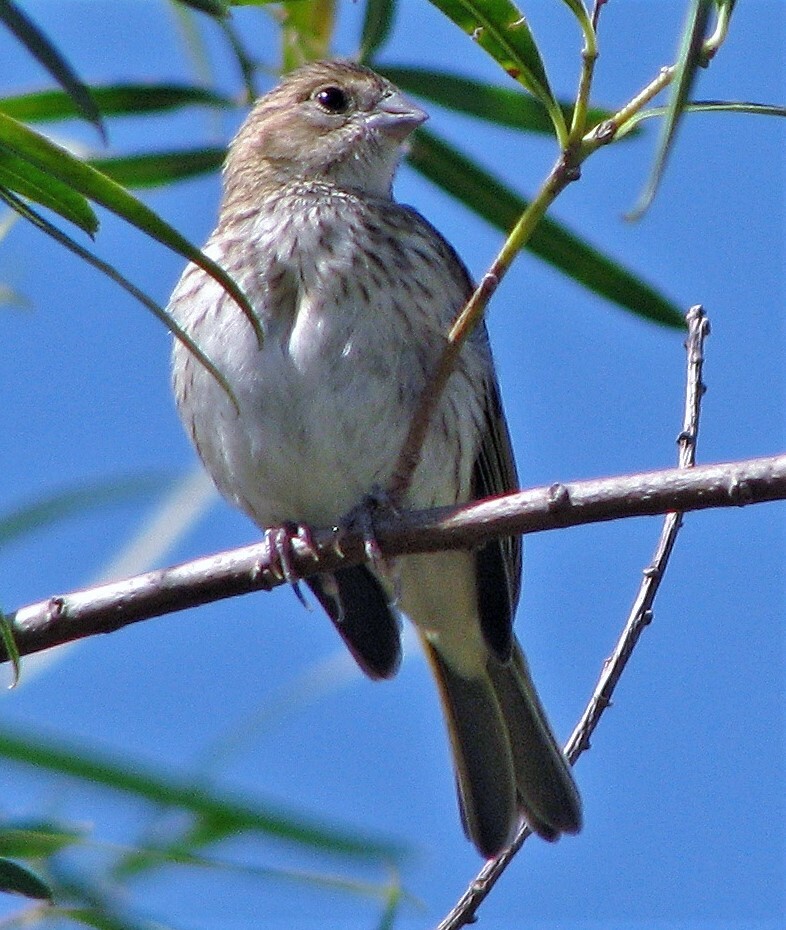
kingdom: Animalia
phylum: Chordata
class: Aves
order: Passeriformes
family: Thraupidae
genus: Sicalis
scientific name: Sicalis flaveola
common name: Saffron finch
